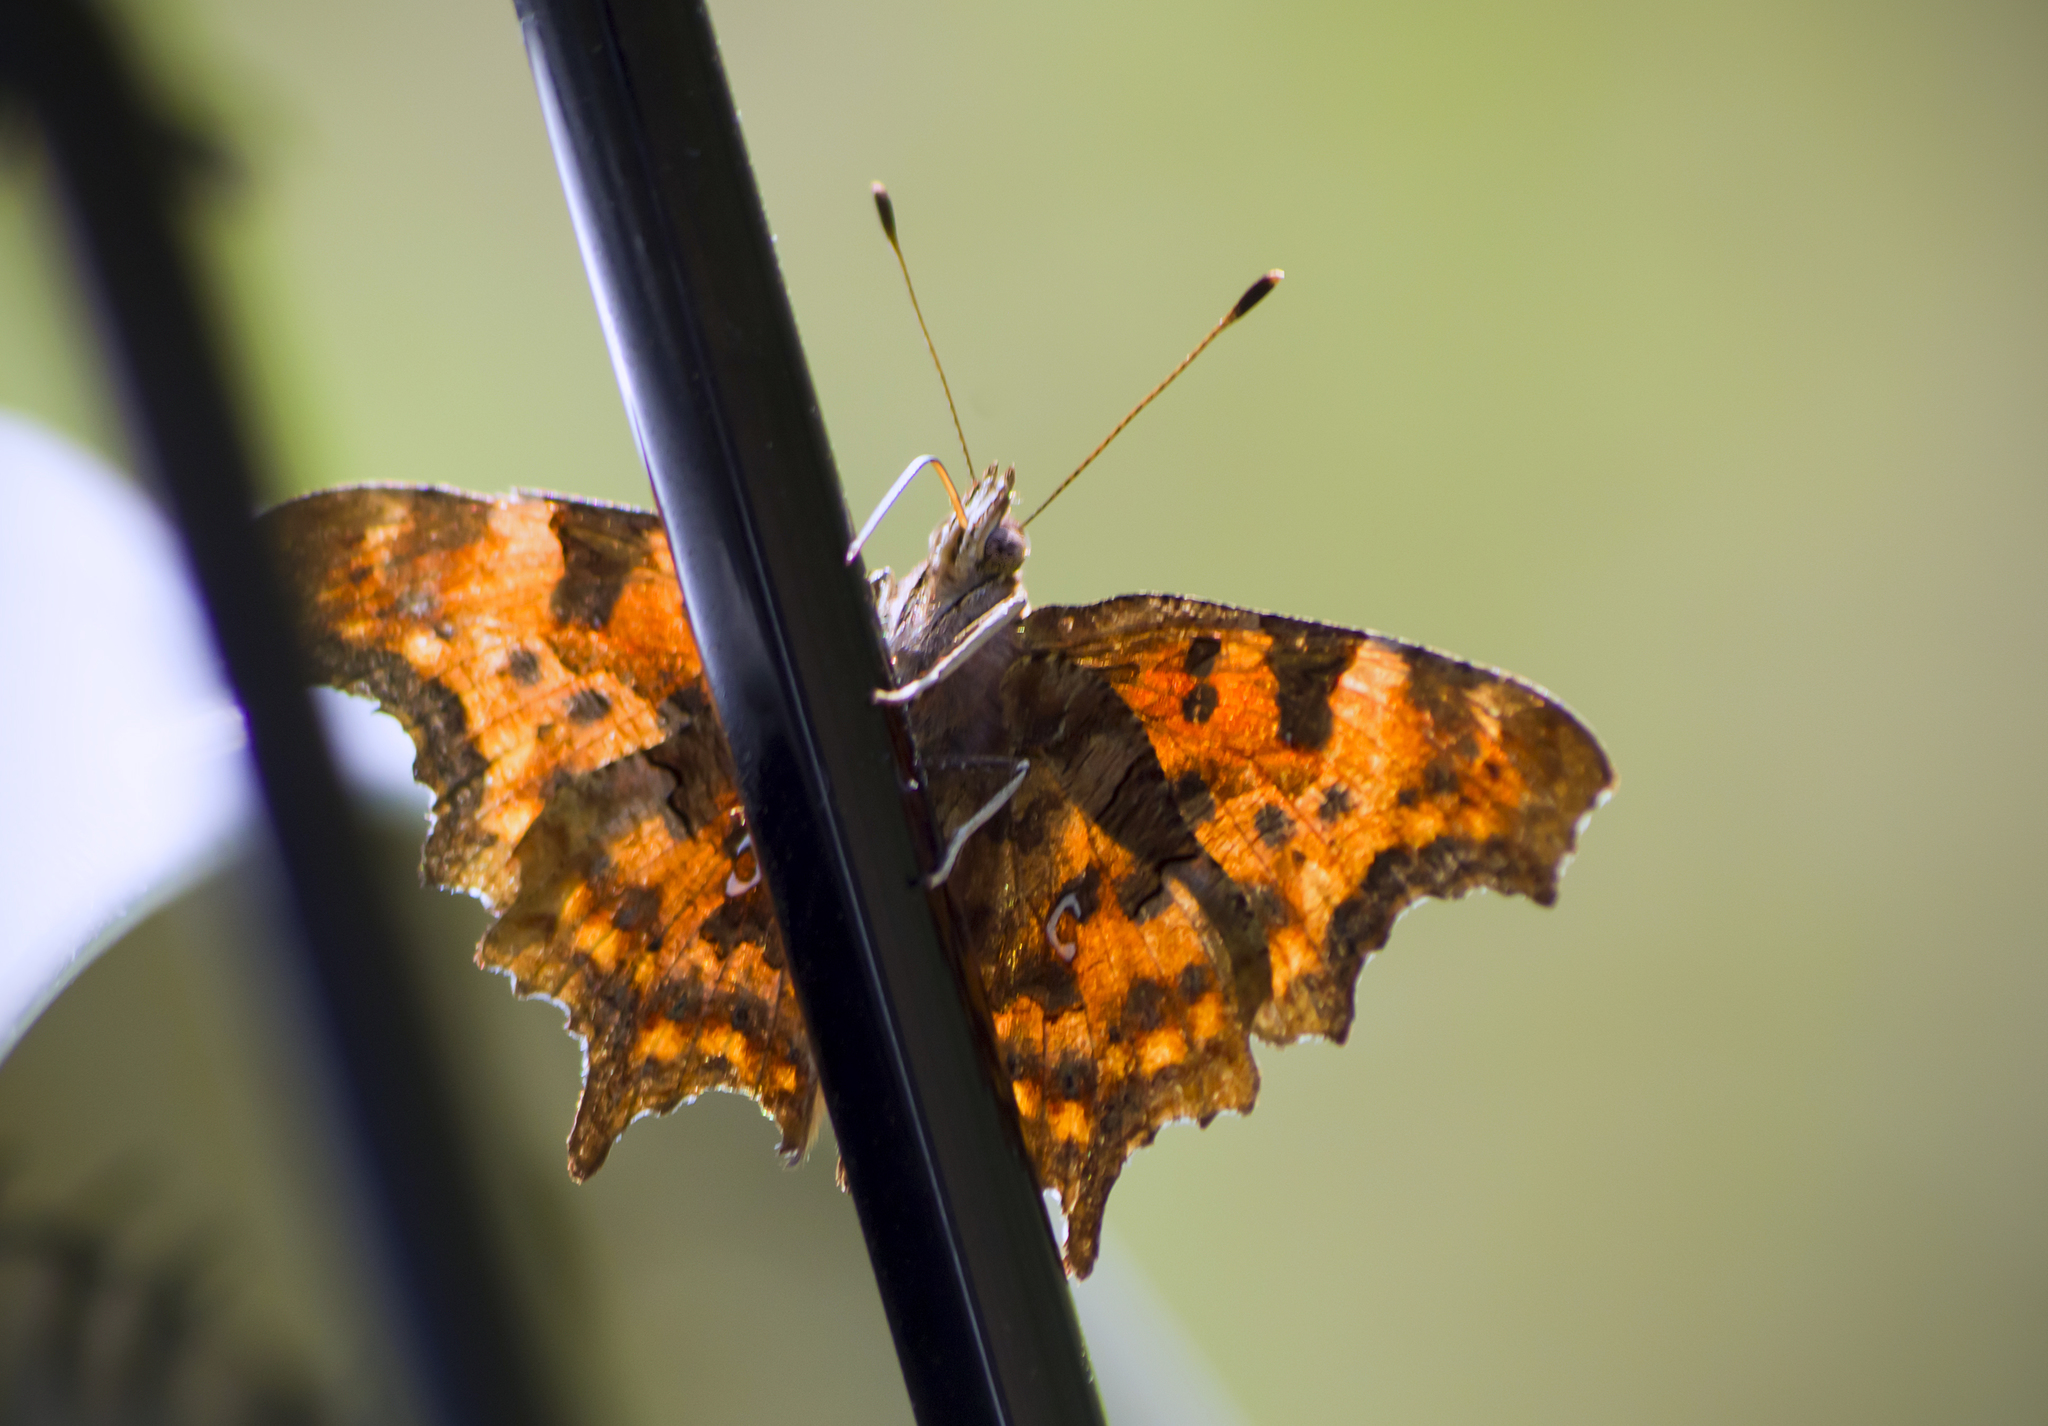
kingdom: Animalia
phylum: Arthropoda
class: Insecta
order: Lepidoptera
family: Nymphalidae
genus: Polygonia
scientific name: Polygonia c-album
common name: Comma
